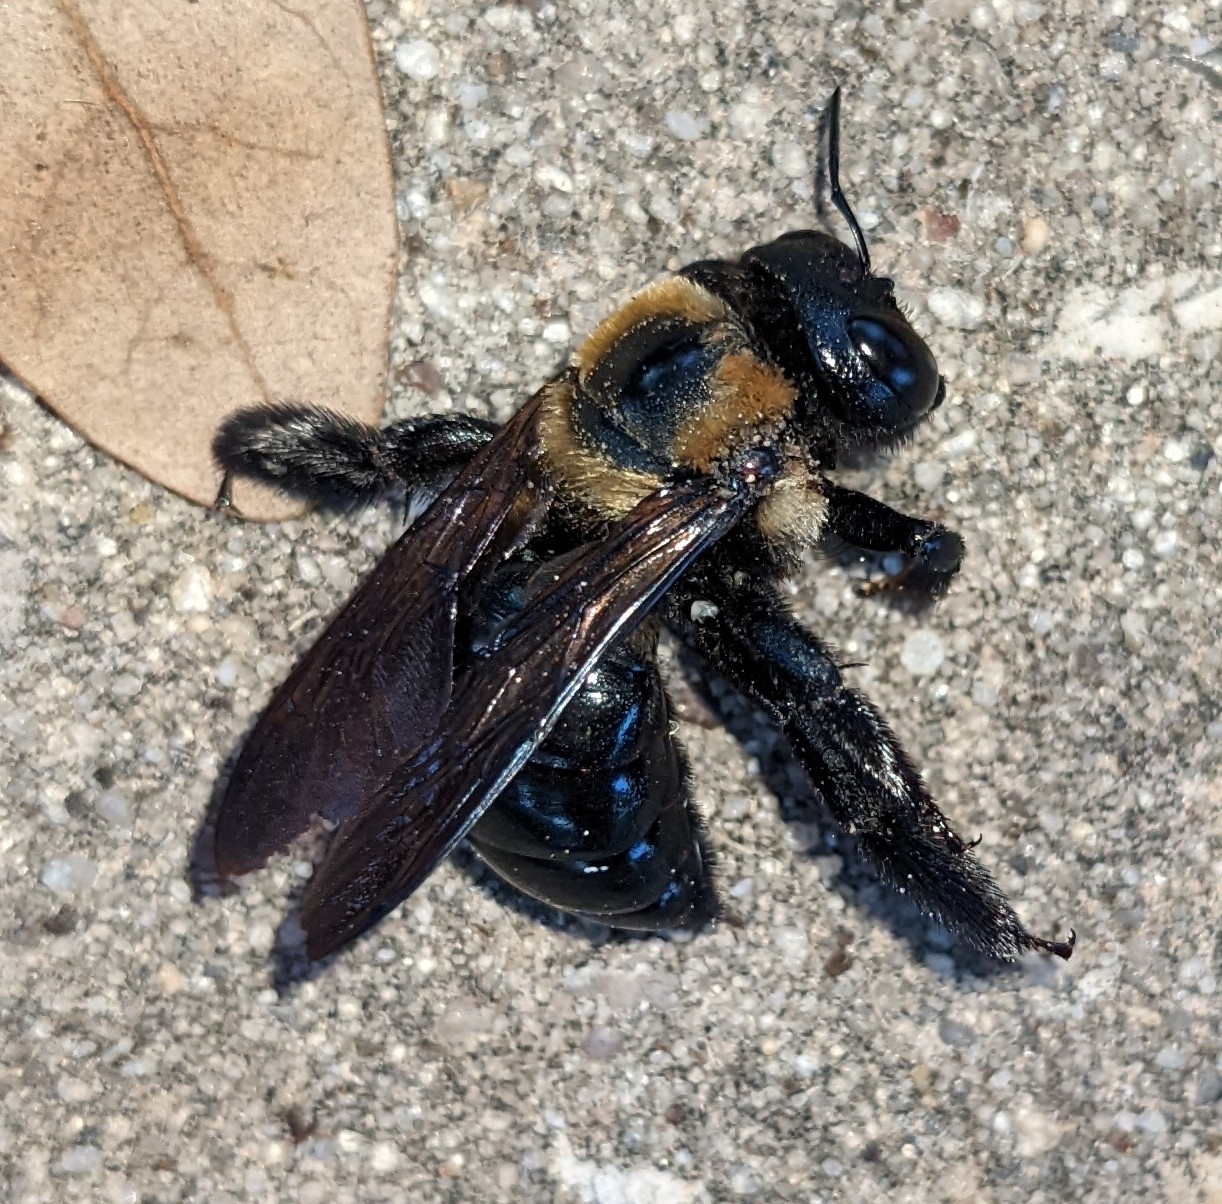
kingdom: Animalia
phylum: Arthropoda
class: Insecta
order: Hymenoptera
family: Apidae
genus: Xylocopa
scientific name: Xylocopa virginica
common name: Carpenter bee
